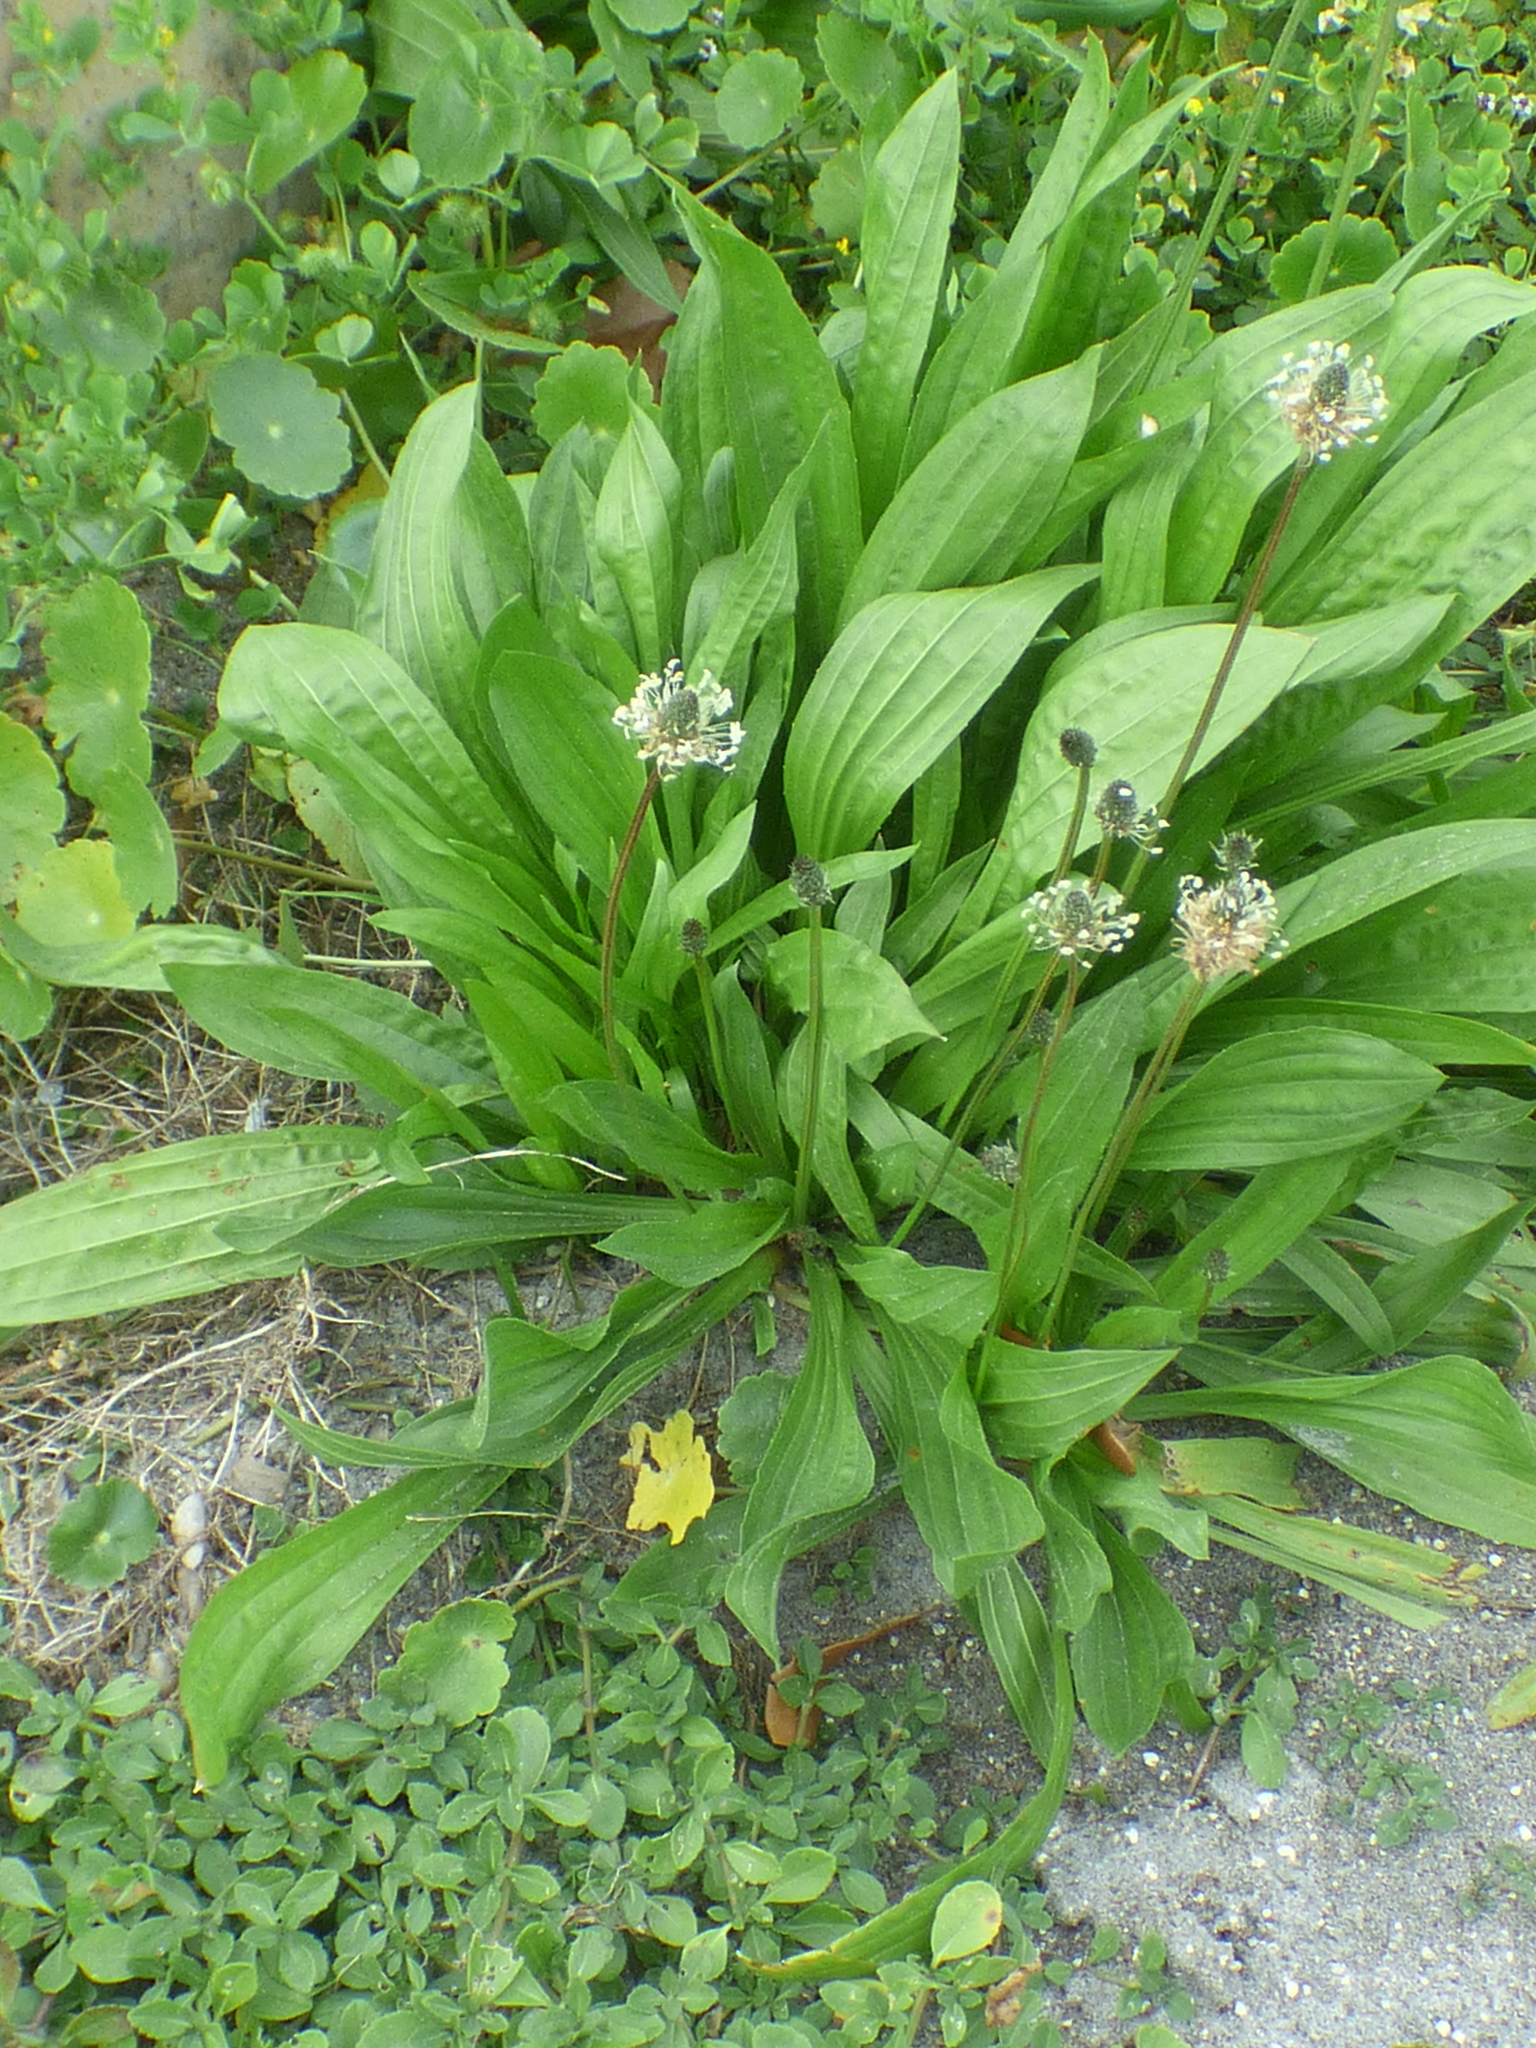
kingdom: Plantae
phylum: Tracheophyta
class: Magnoliopsida
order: Lamiales
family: Plantaginaceae
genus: Plantago
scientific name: Plantago lanceolata
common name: Ribwort plantain
